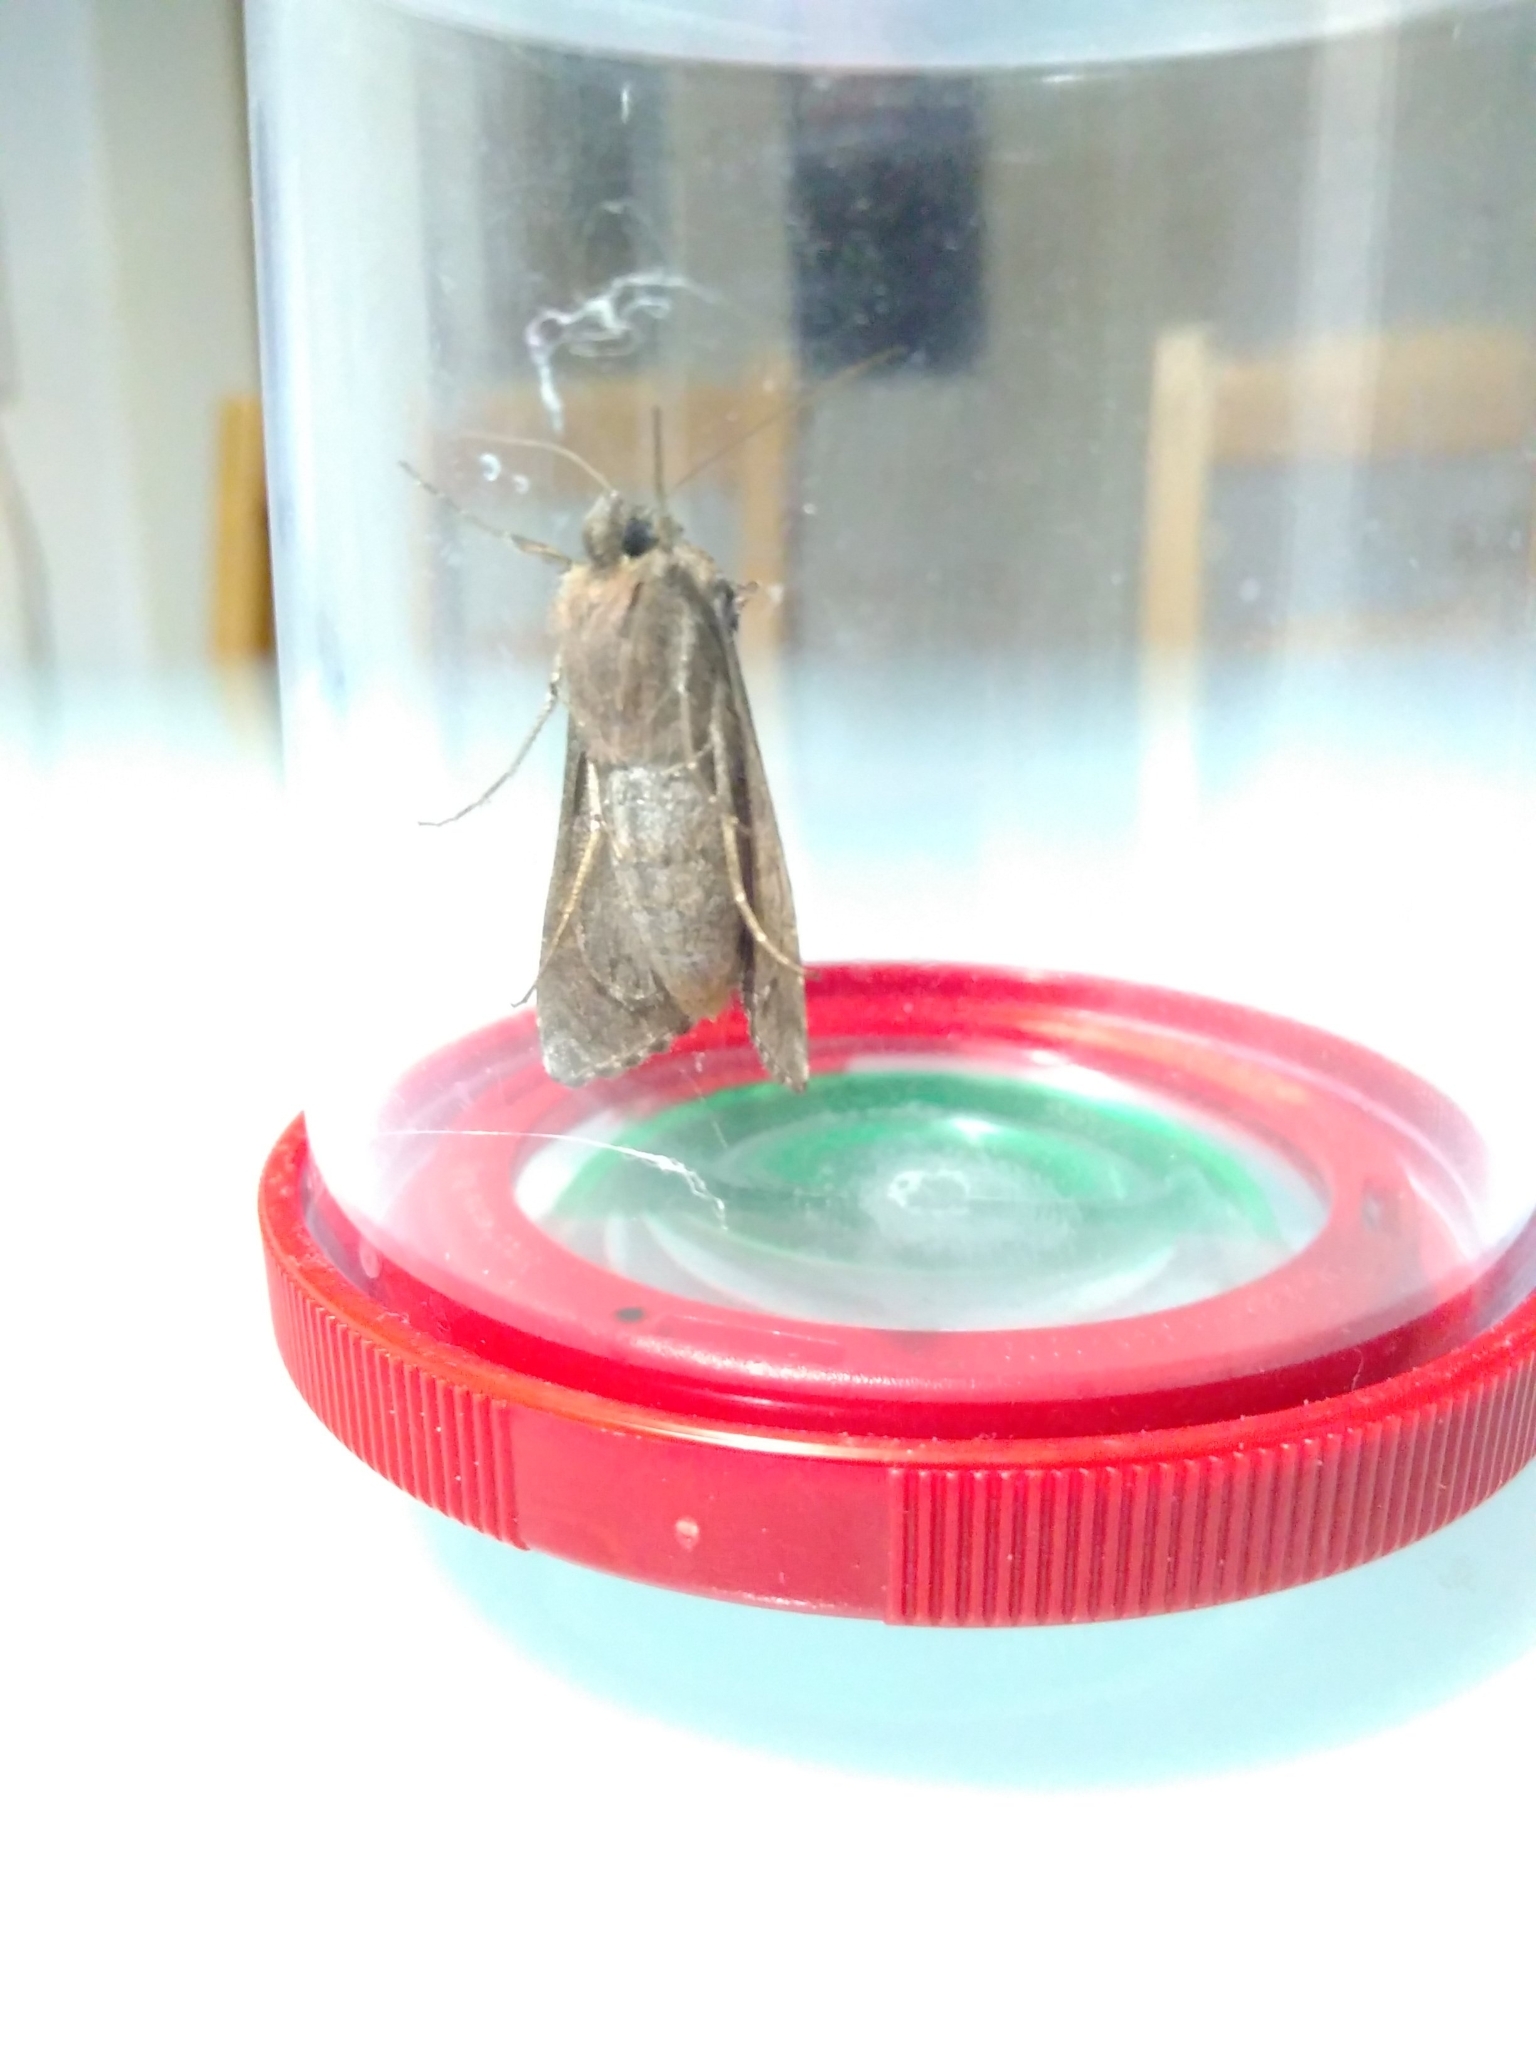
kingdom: Animalia
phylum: Arthropoda
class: Insecta
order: Lepidoptera
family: Noctuidae
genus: Autographa
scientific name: Autographa gamma
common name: Silver y
